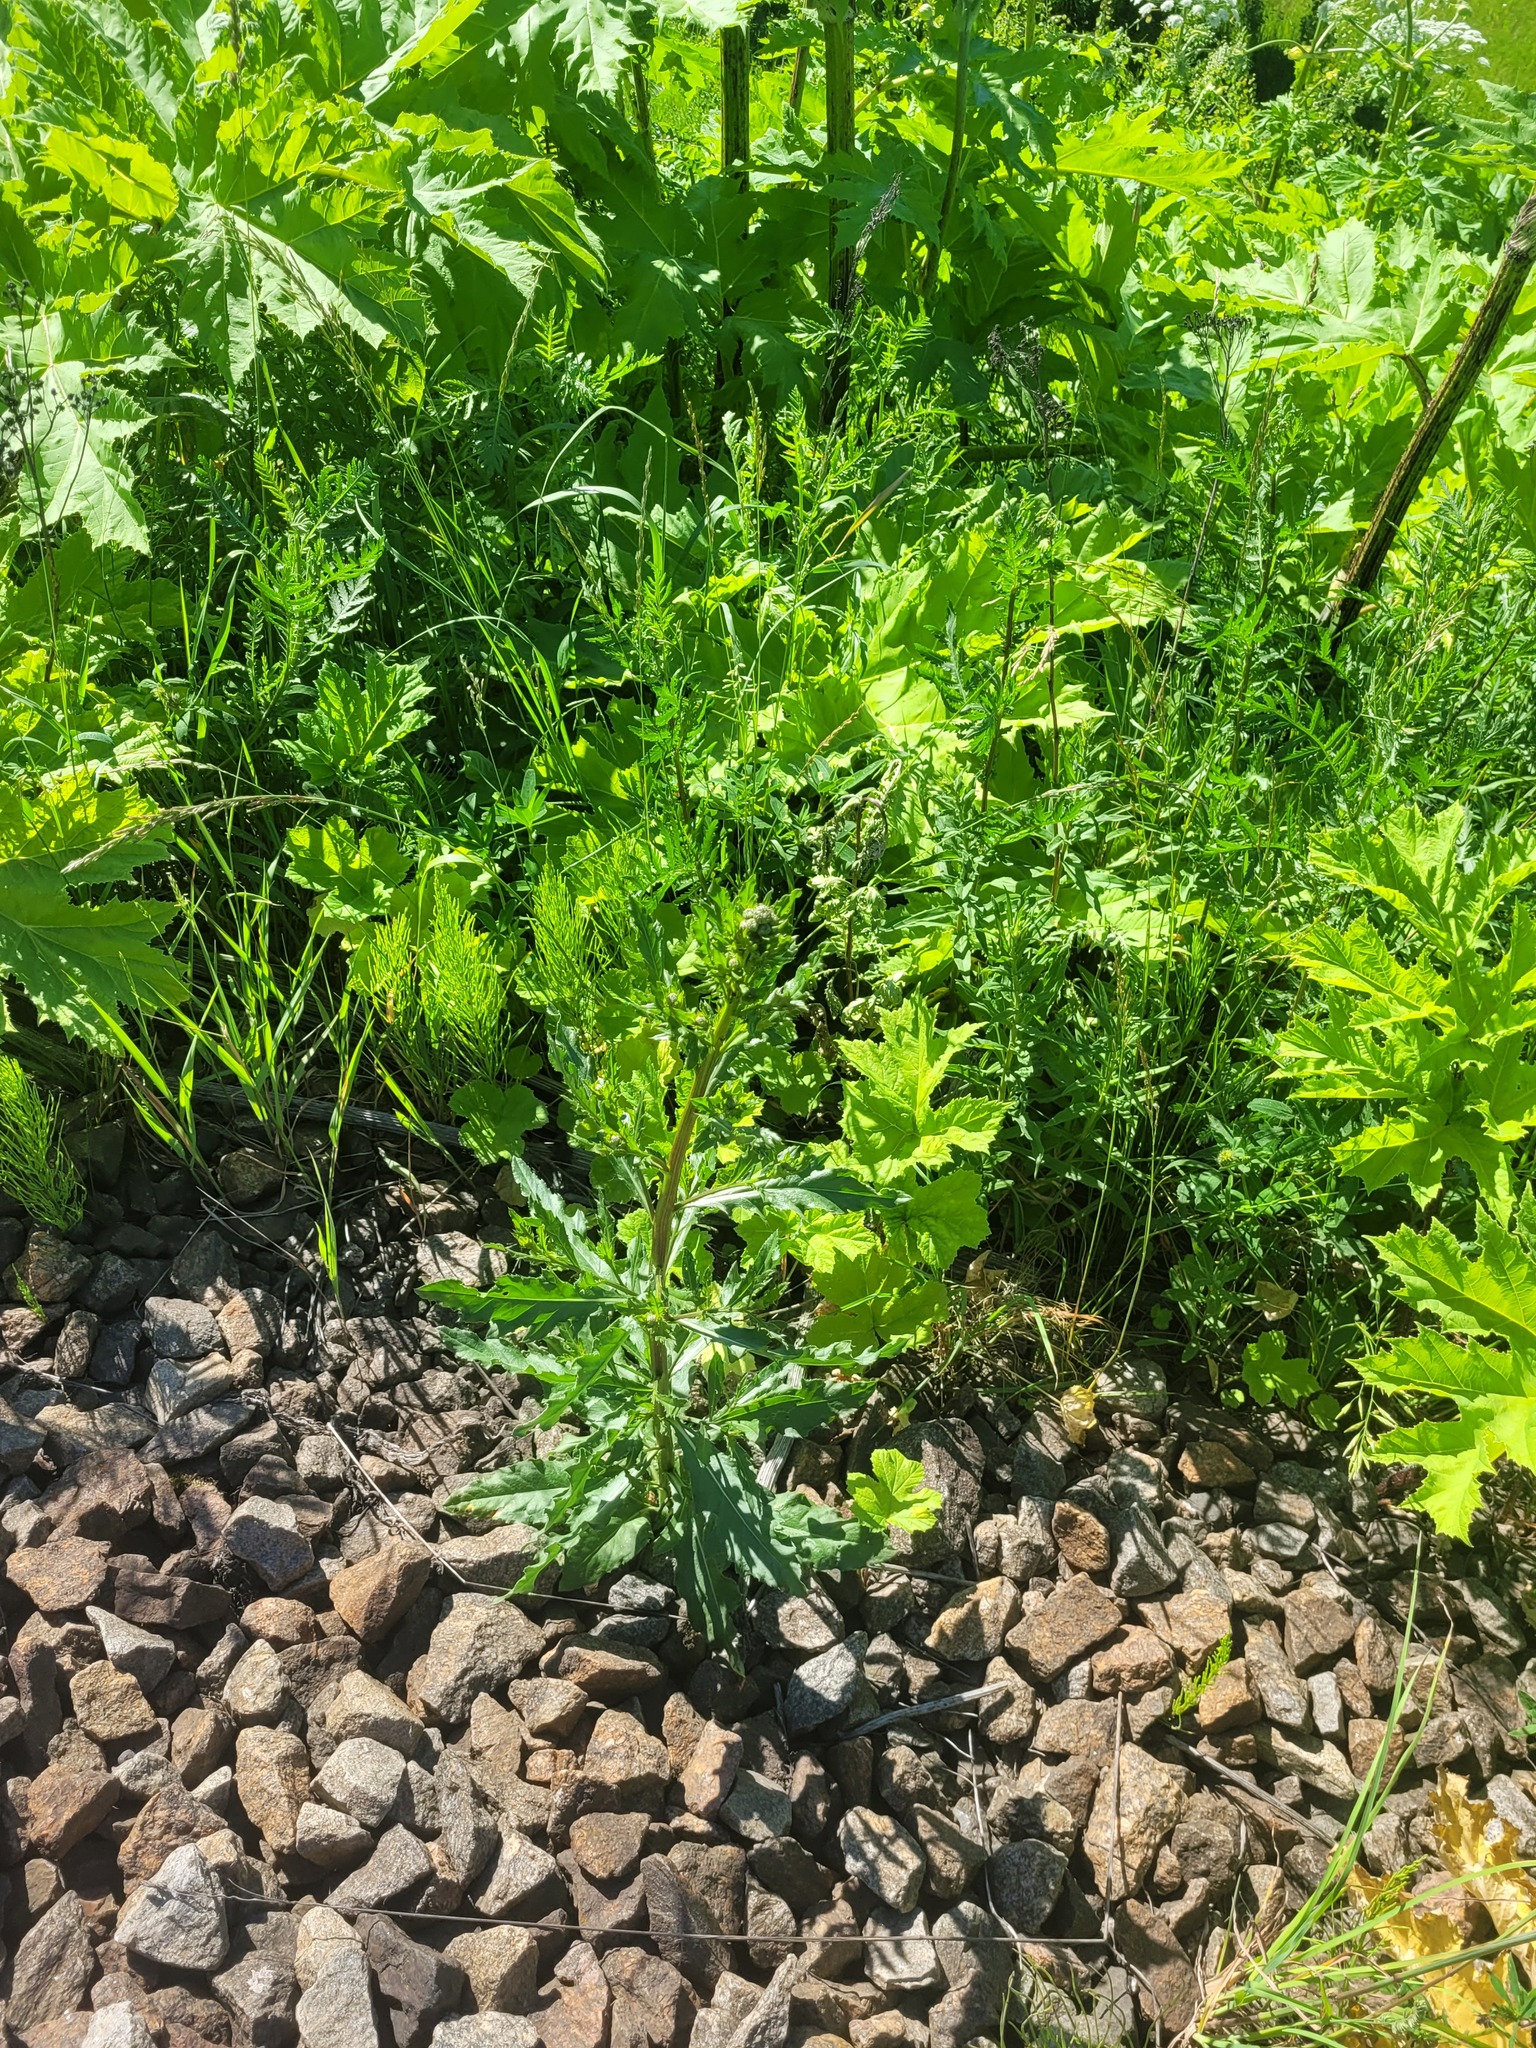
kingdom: Plantae
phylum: Tracheophyta
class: Magnoliopsida
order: Asterales
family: Asteraceae
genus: Cirsium
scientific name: Cirsium arvense
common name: Creeping thistle
